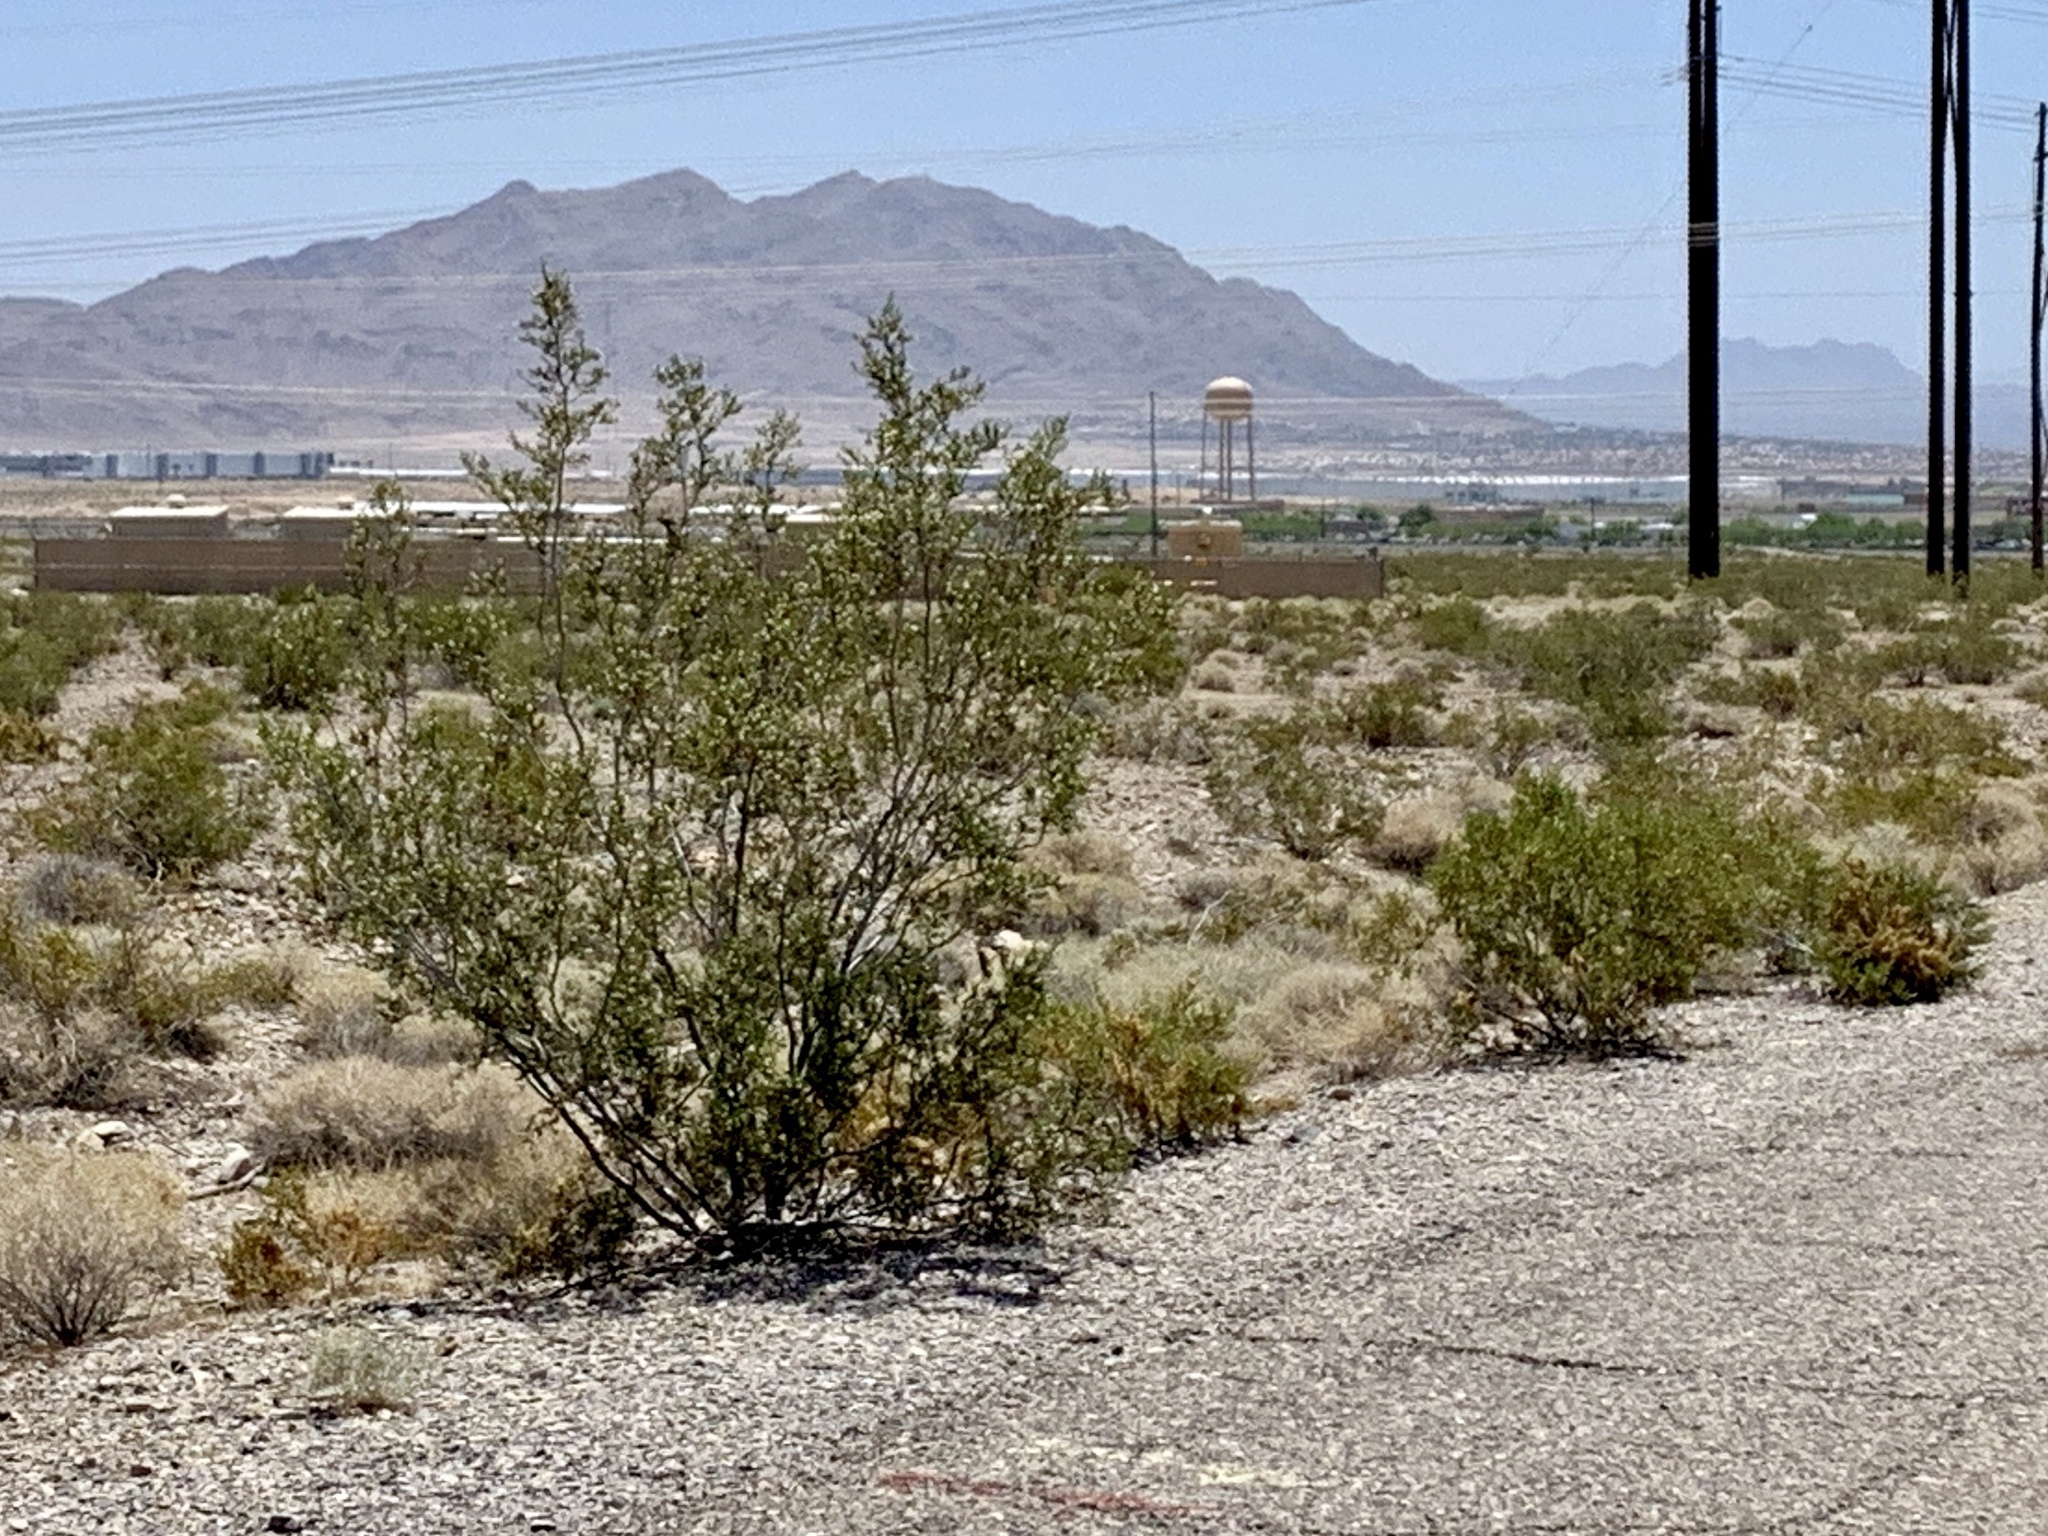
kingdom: Plantae
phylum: Tracheophyta
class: Magnoliopsida
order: Zygophyllales
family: Zygophyllaceae
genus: Larrea
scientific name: Larrea tridentata
